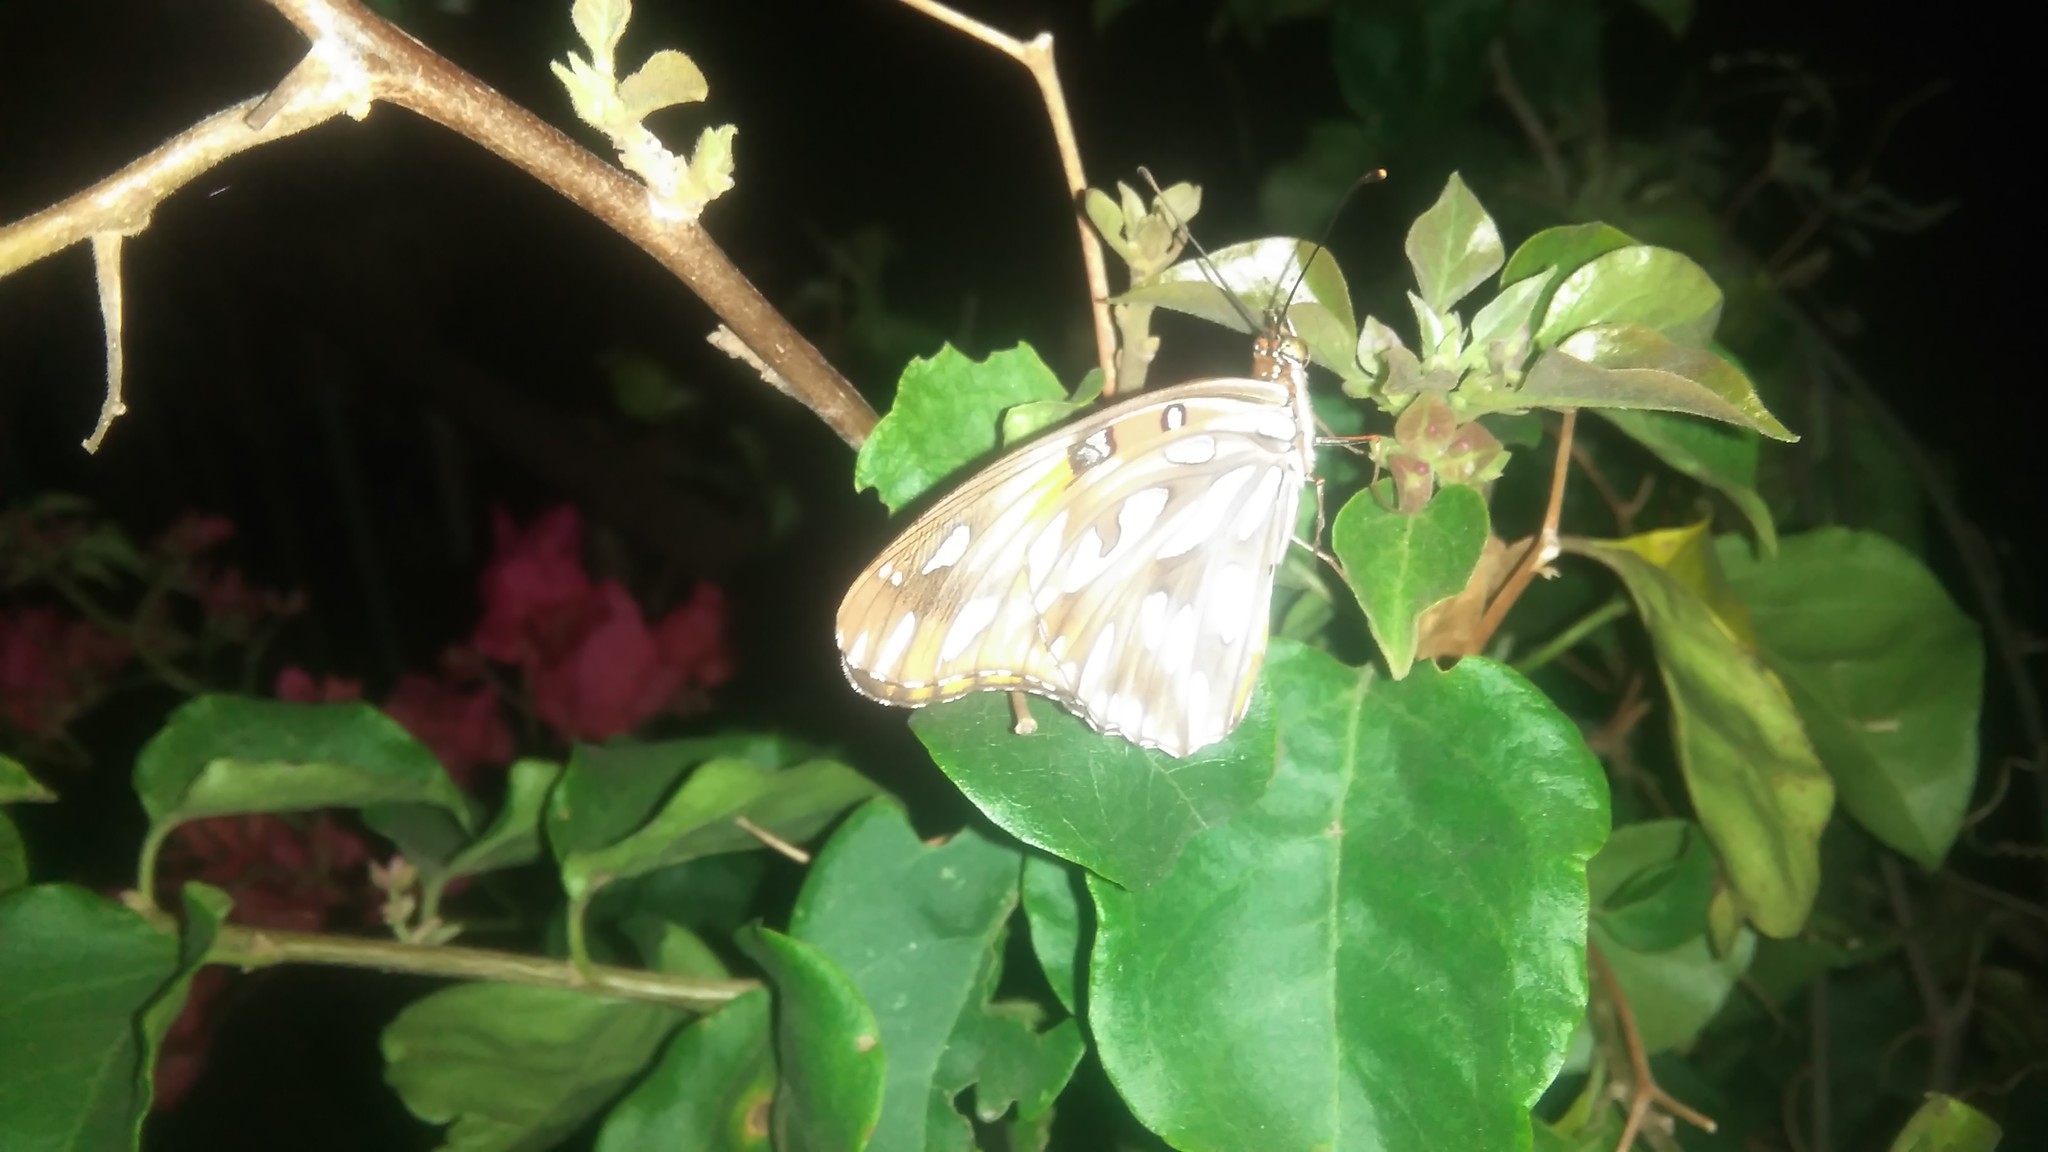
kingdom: Animalia
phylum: Arthropoda
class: Insecta
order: Lepidoptera
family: Nymphalidae
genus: Dione
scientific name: Dione vanillae
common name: Gulf fritillary
